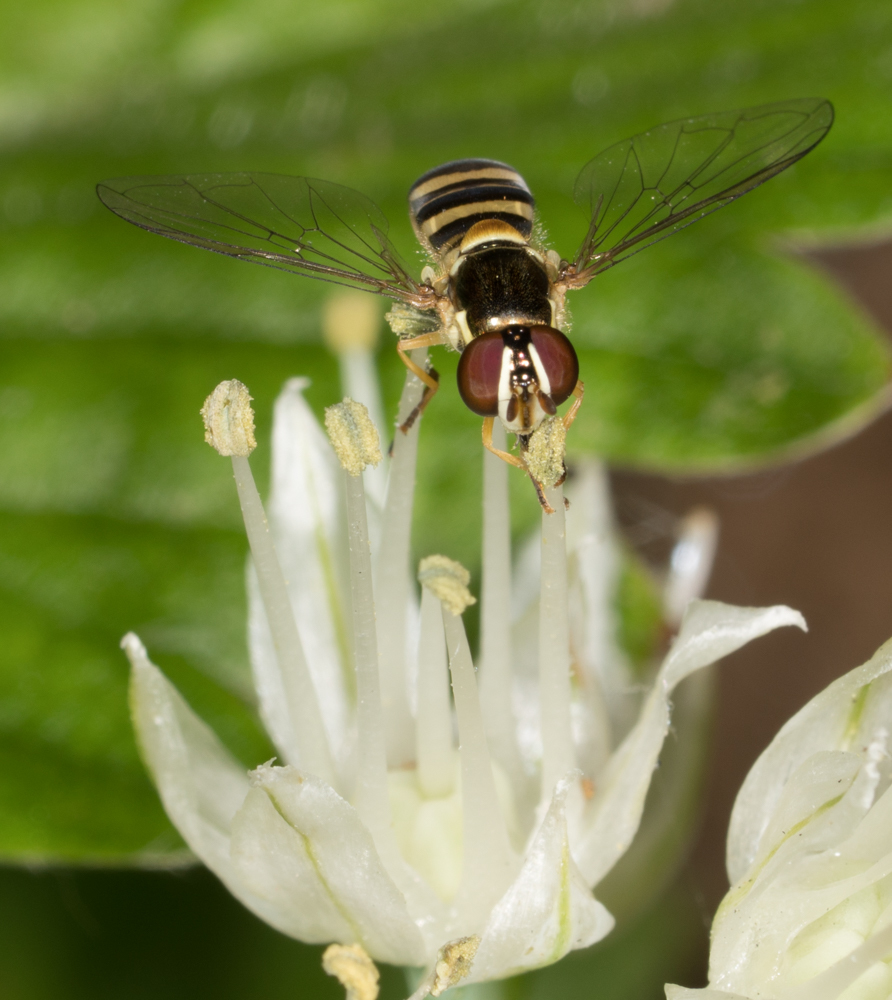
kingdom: Animalia
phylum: Arthropoda
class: Insecta
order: Diptera
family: Syrphidae
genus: Allograpta
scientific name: Allograpta obliqua
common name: Common oblique syrphid
